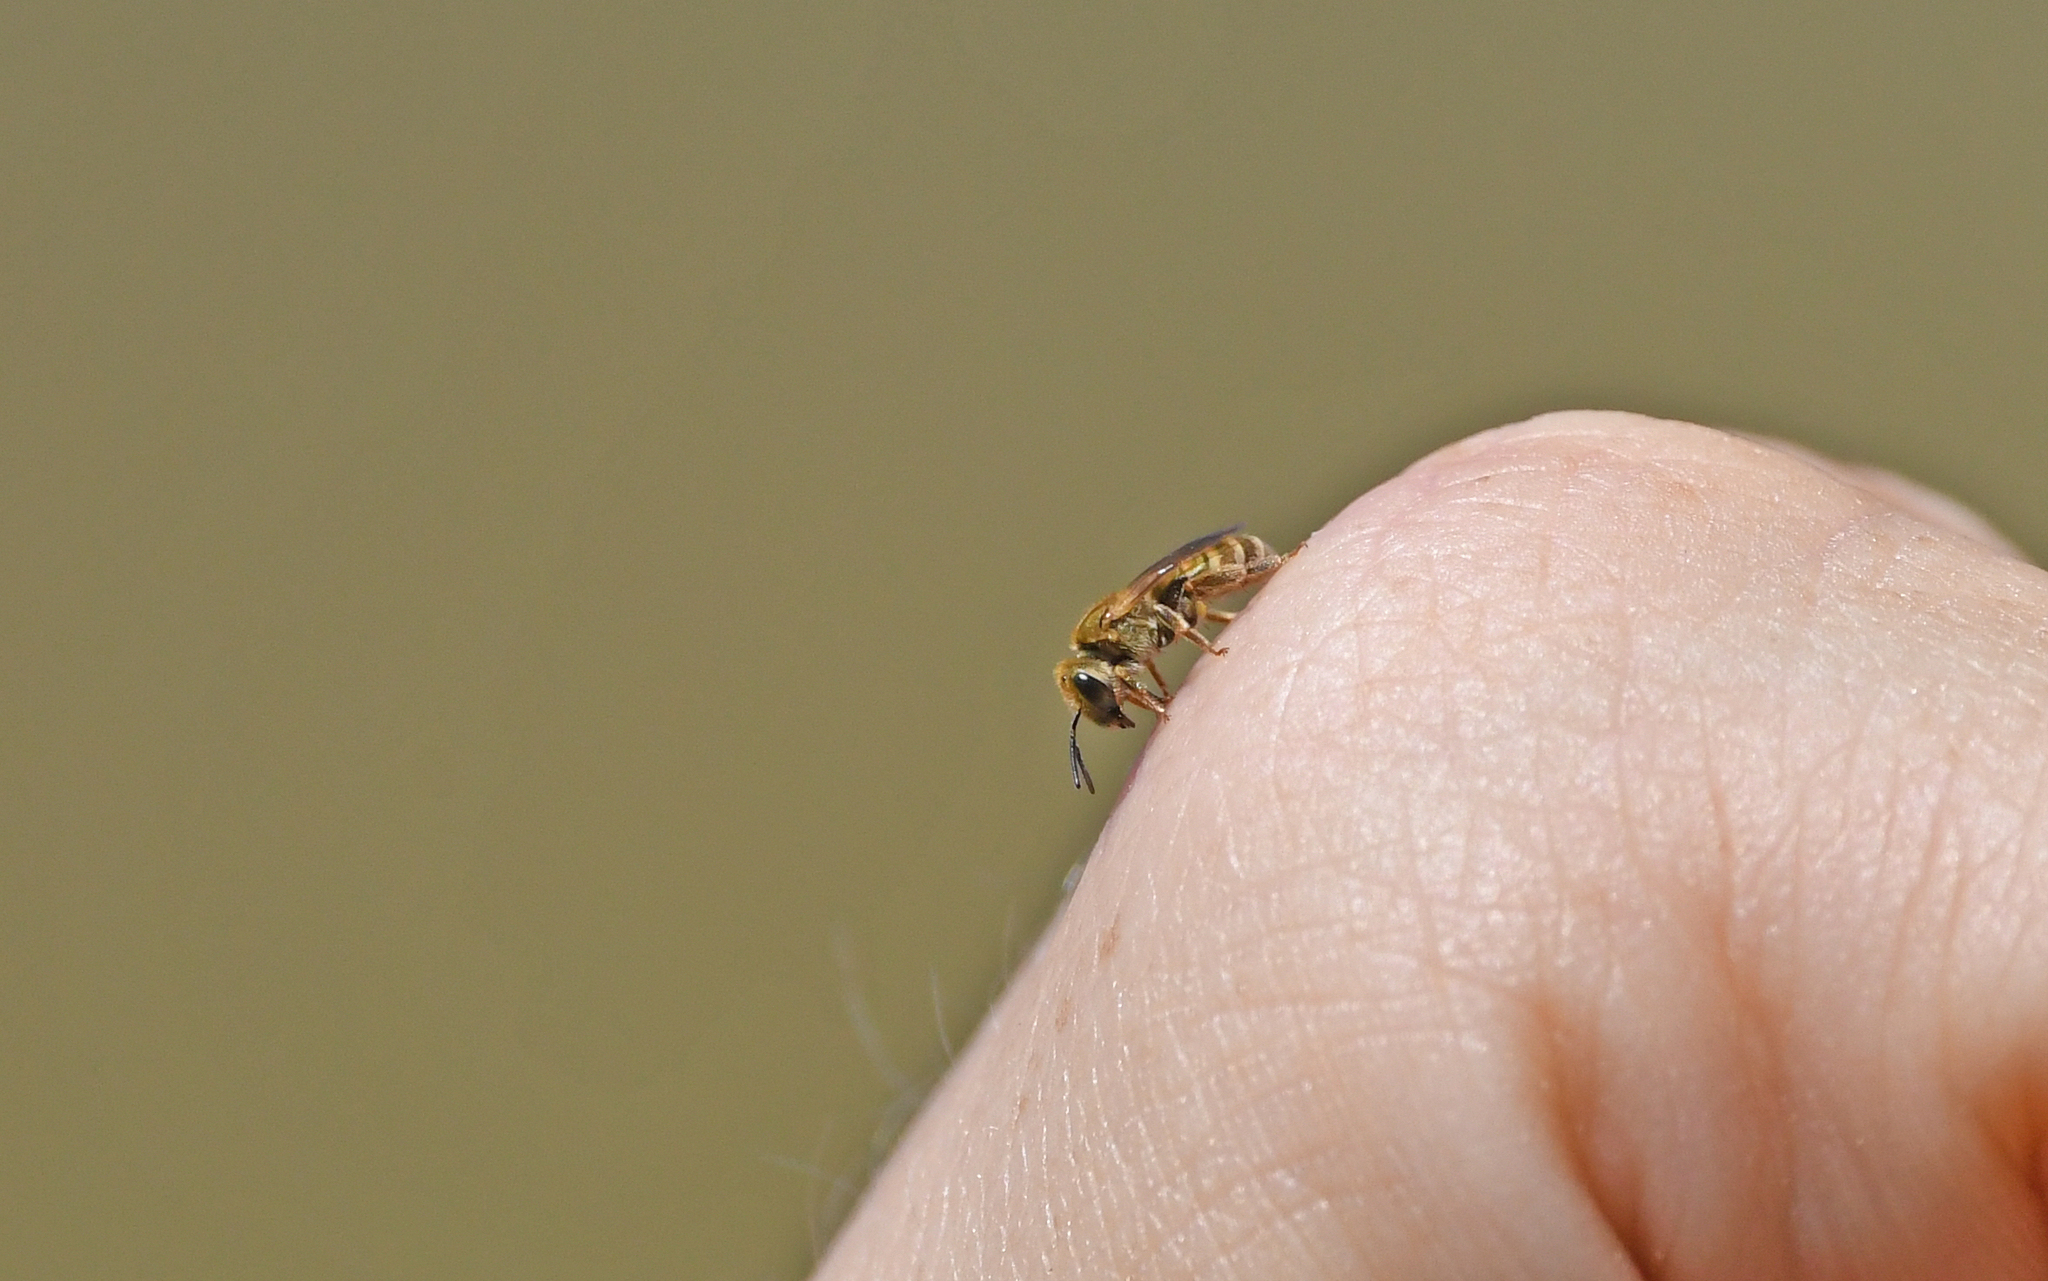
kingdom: Animalia
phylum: Arthropoda
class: Insecta
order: Hymenoptera
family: Halictidae
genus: Halictus
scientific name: Halictus subauratus
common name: Golden furrow bee
